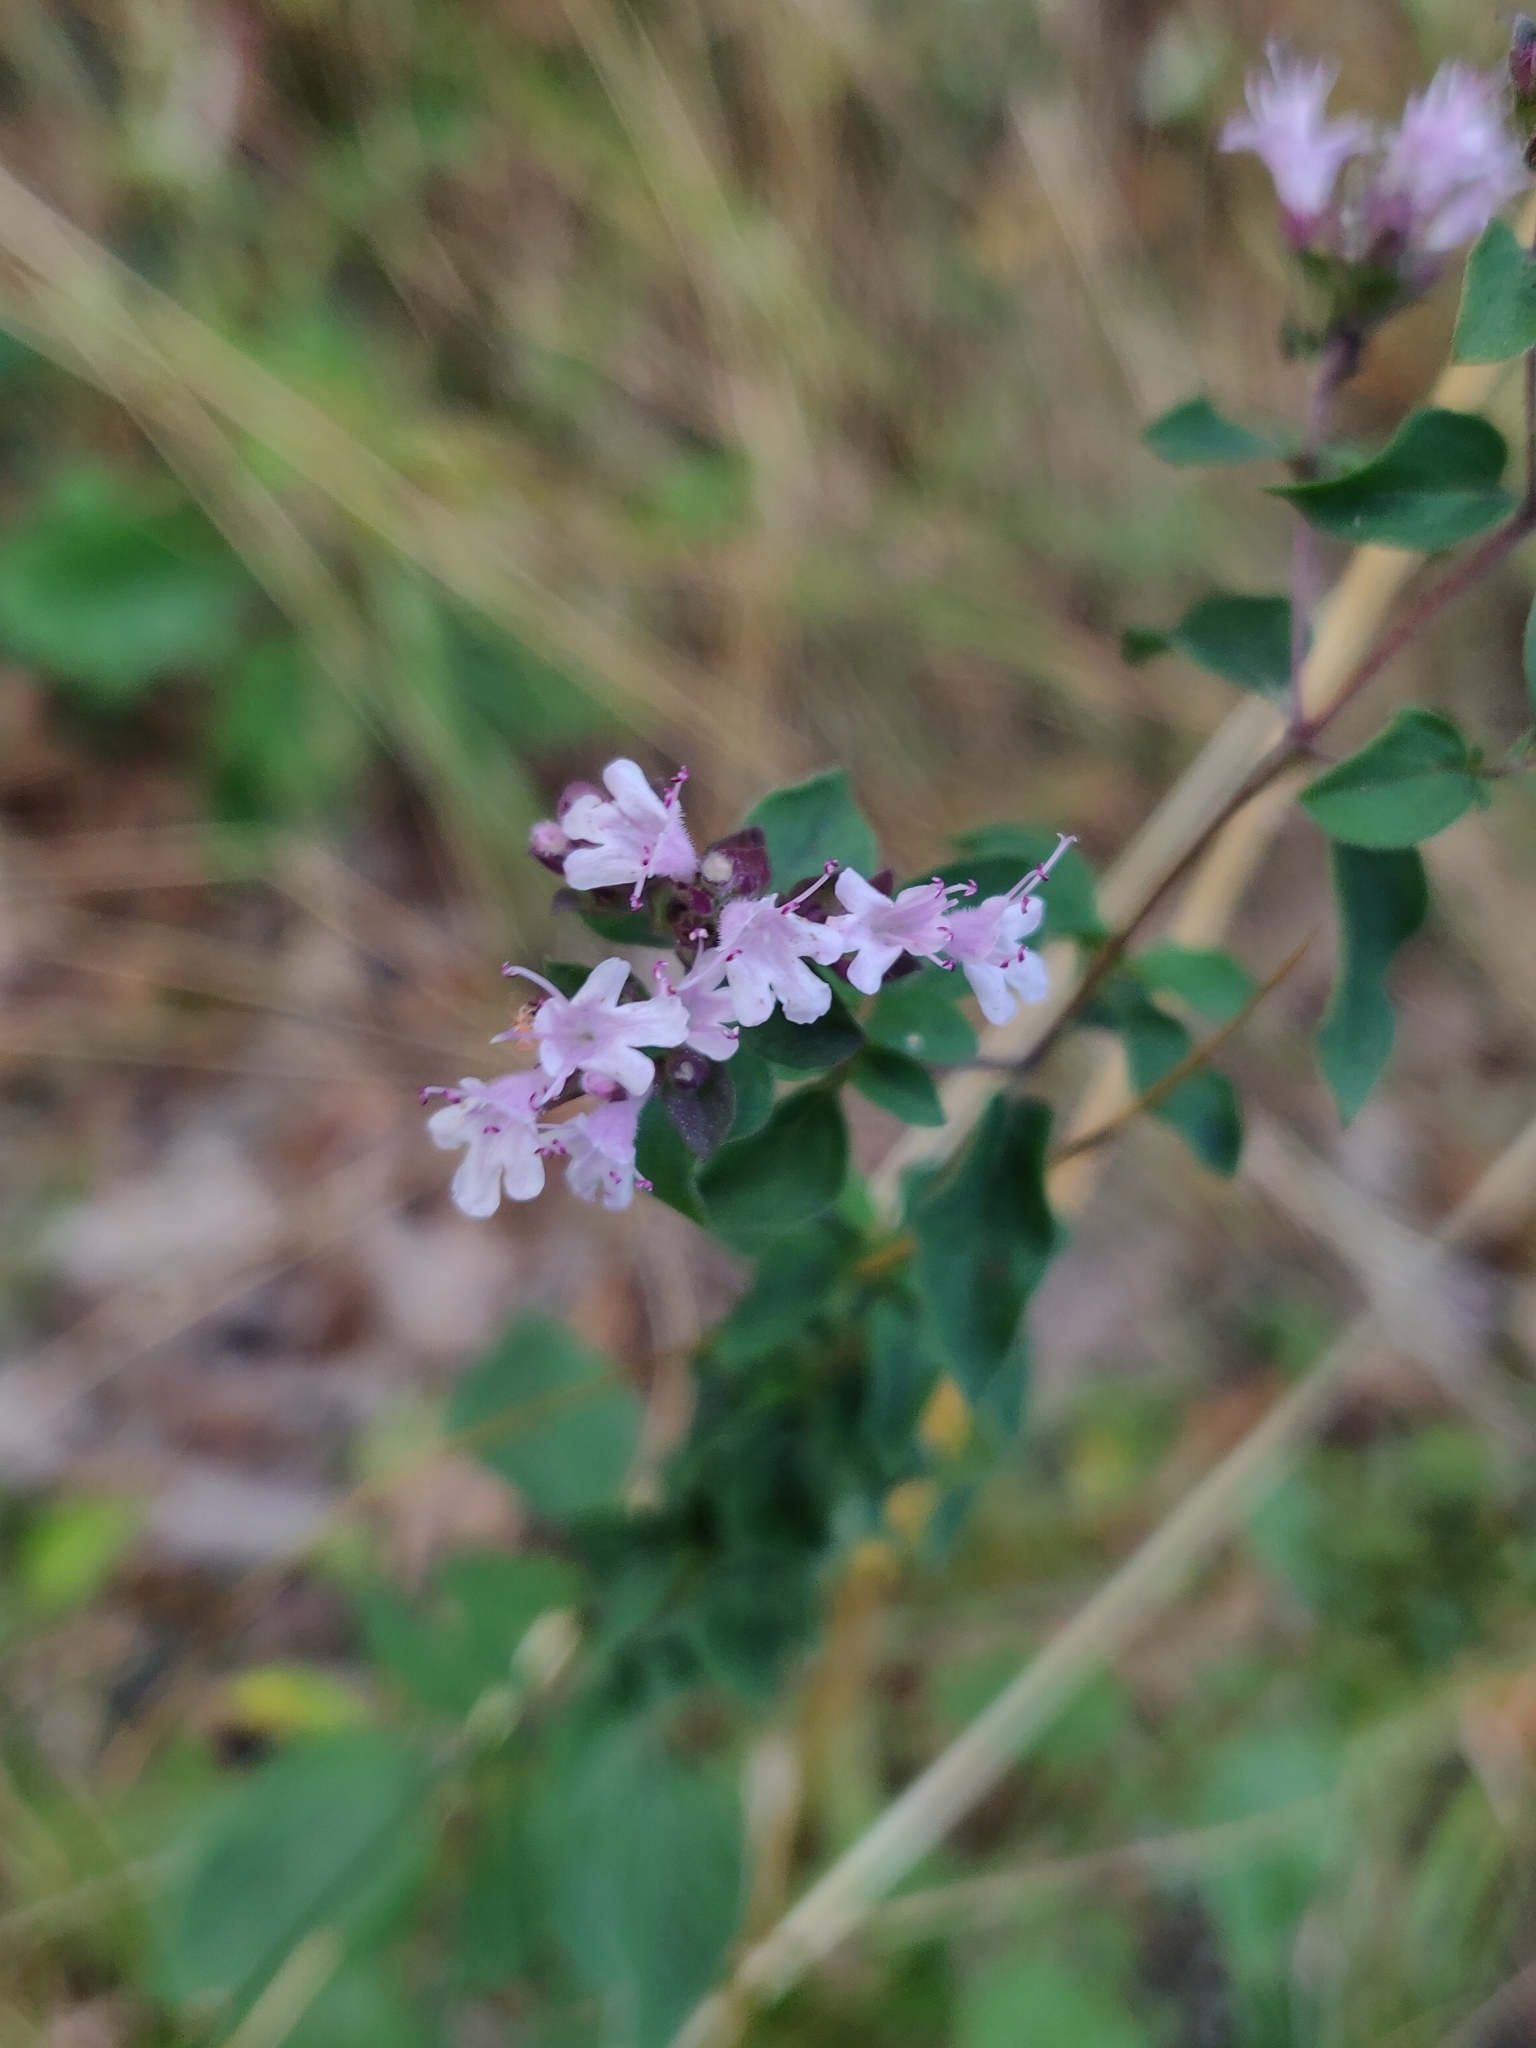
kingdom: Plantae
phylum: Tracheophyta
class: Magnoliopsida
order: Lamiales
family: Lamiaceae
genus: Origanum
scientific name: Origanum vulgare
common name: Wild marjoram
